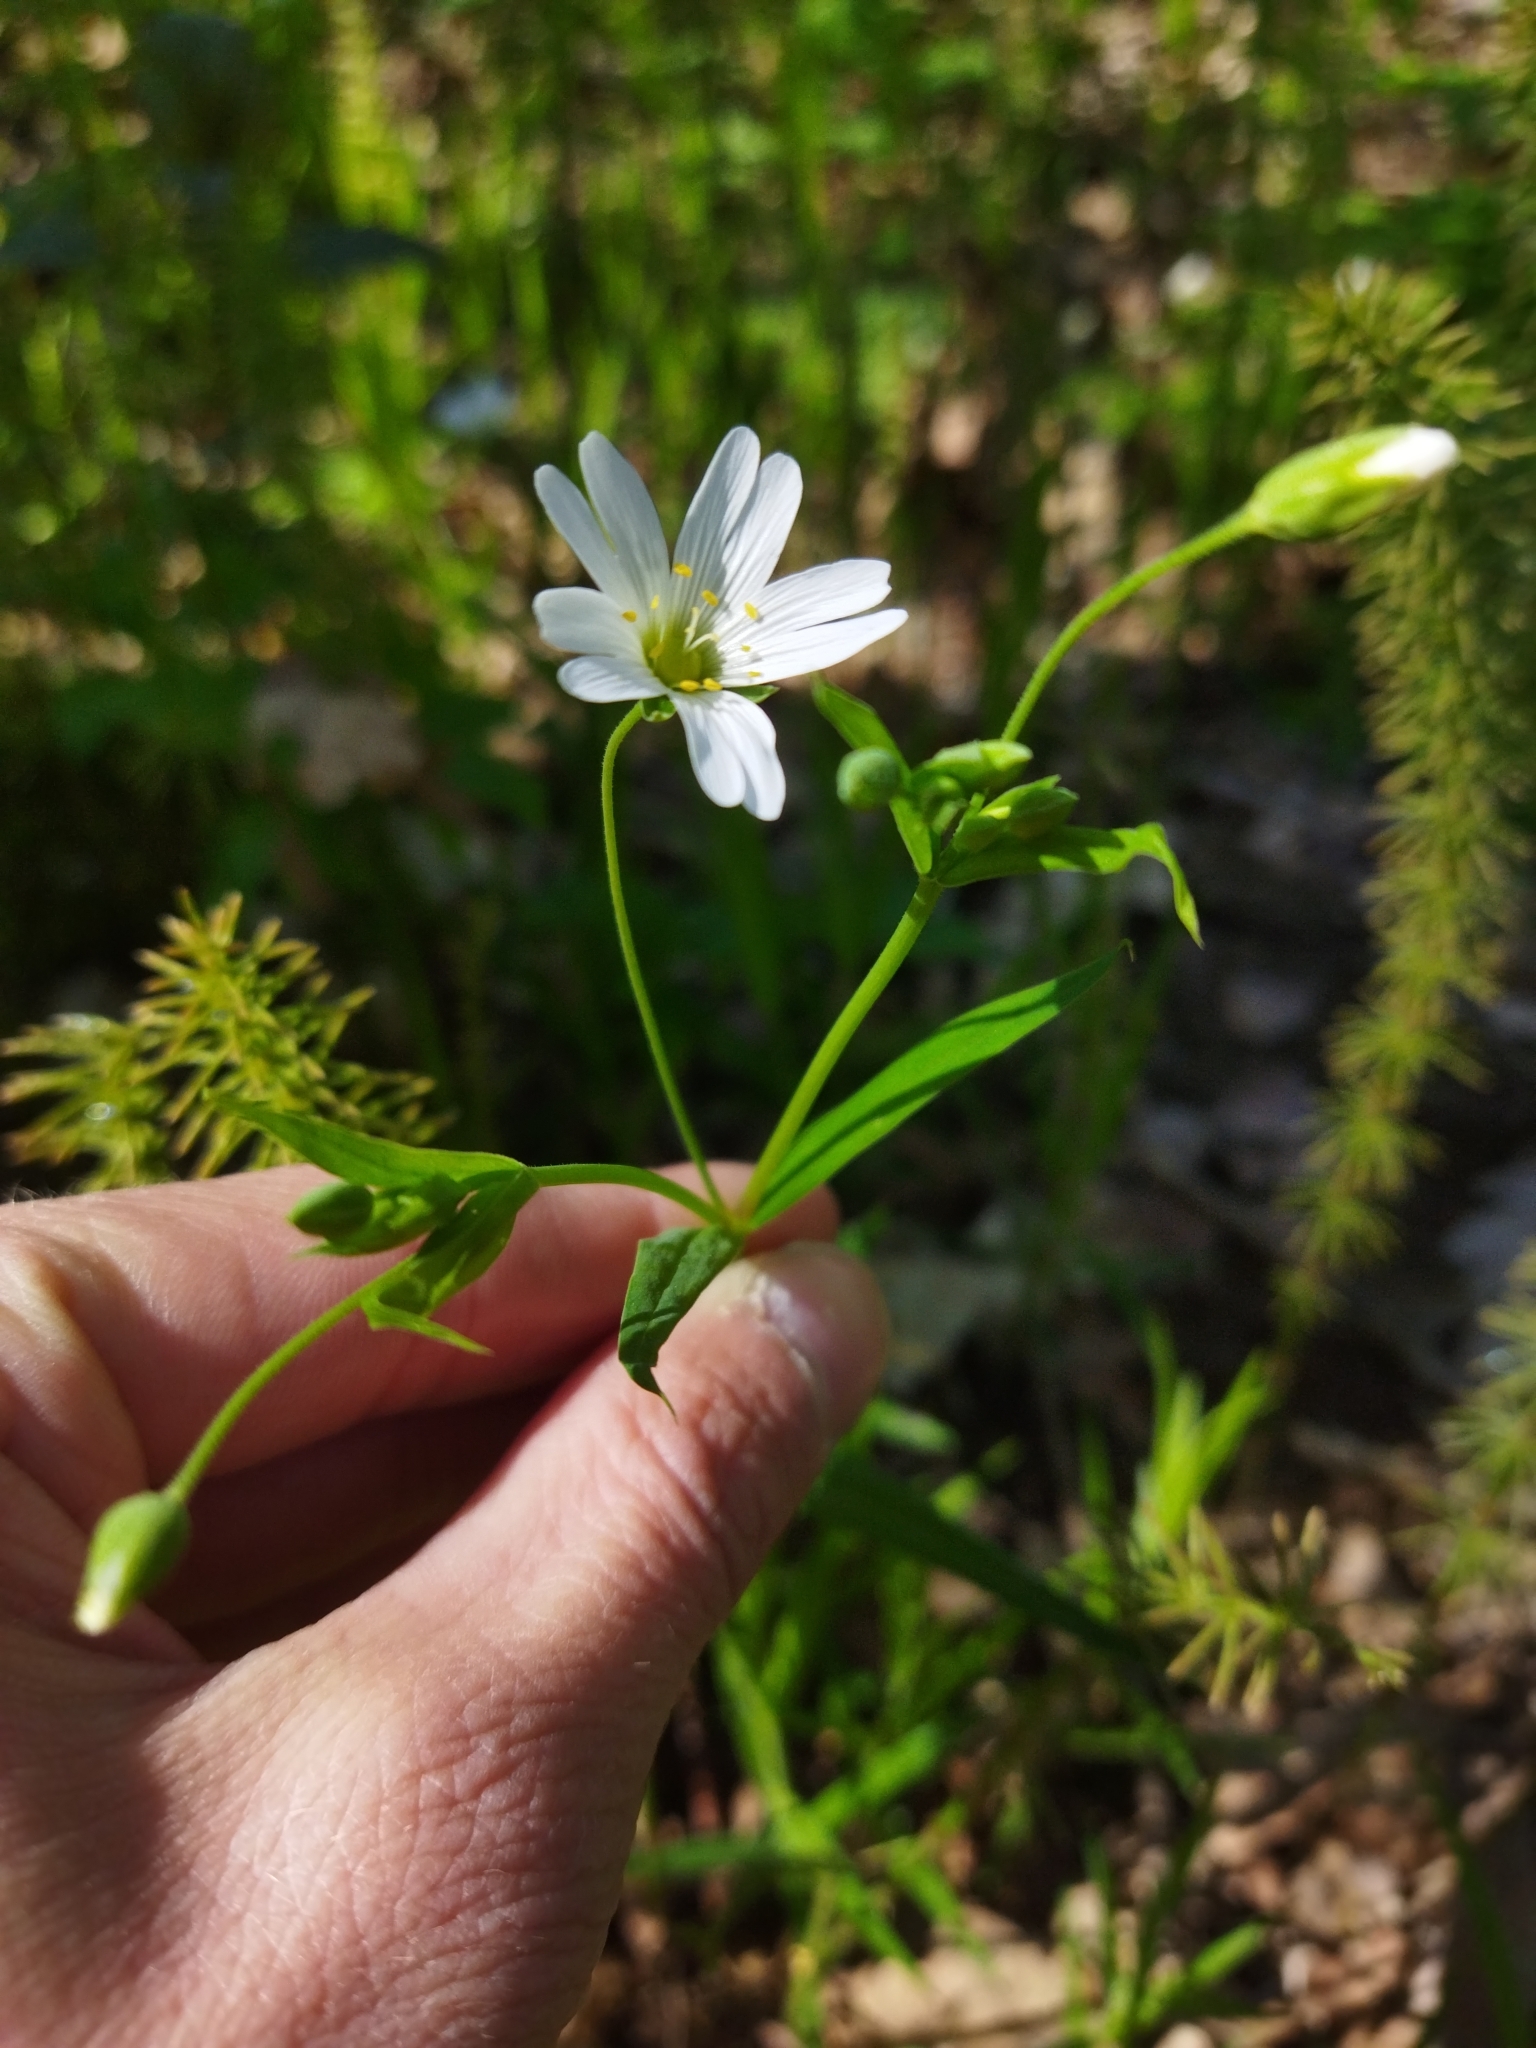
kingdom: Plantae
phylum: Tracheophyta
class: Magnoliopsida
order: Caryophyllales
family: Caryophyllaceae
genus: Rabelera
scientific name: Rabelera holostea
